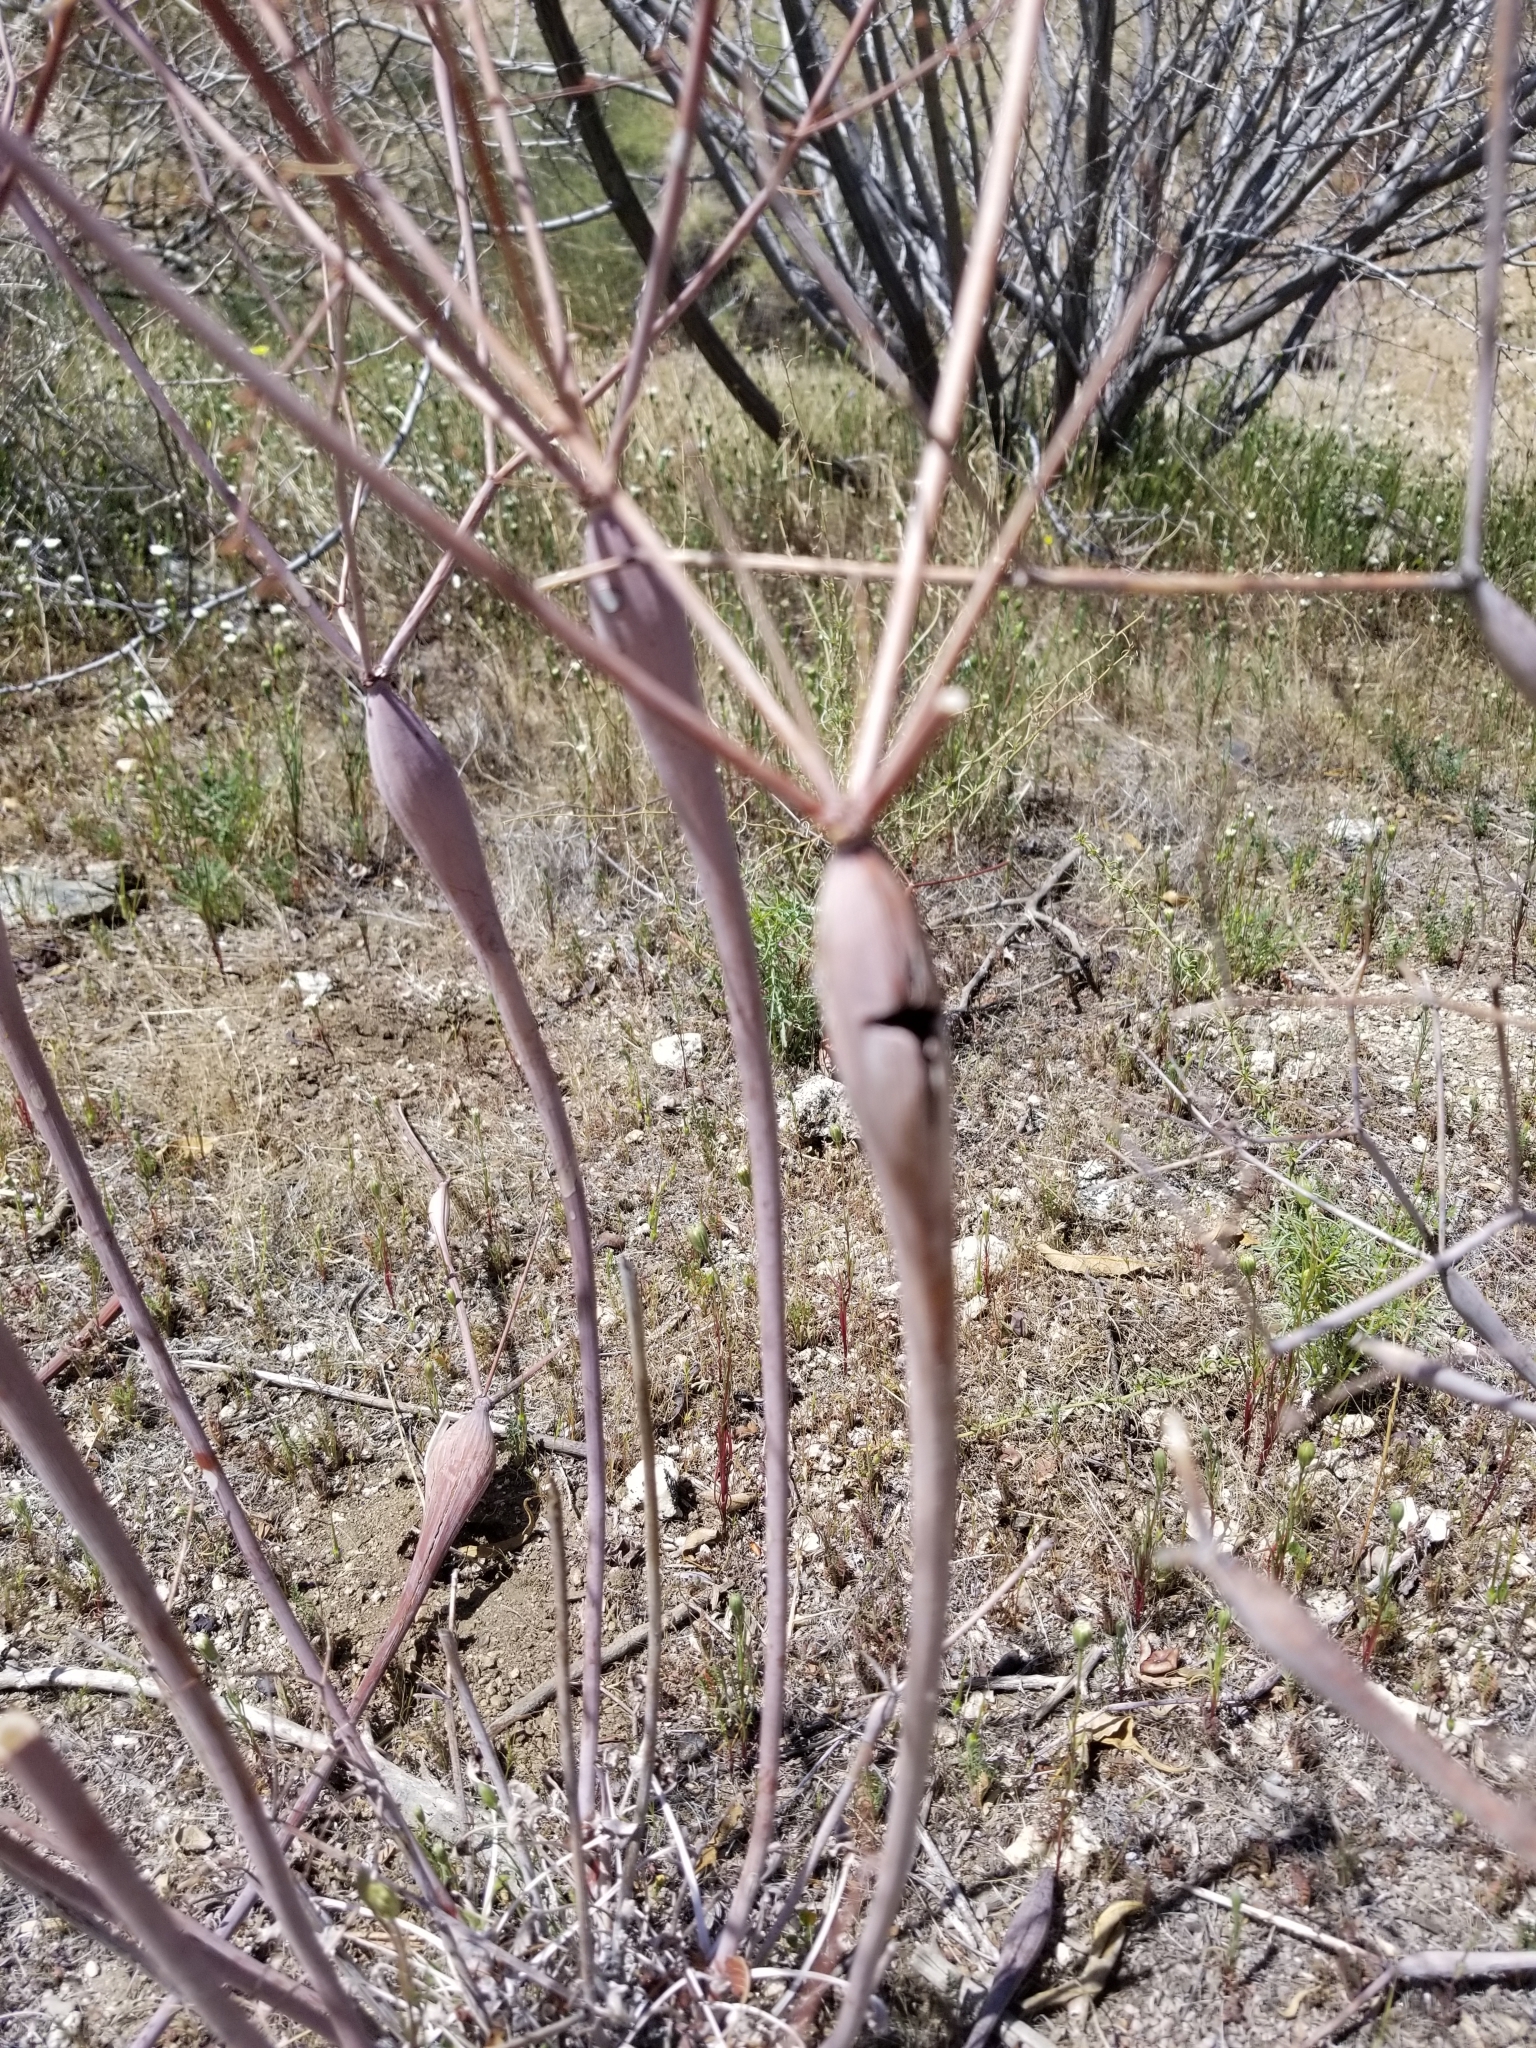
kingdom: Plantae
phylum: Tracheophyta
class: Magnoliopsida
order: Caryophyllales
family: Polygonaceae
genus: Eriogonum
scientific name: Eriogonum inflatum
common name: Desert trumpet
